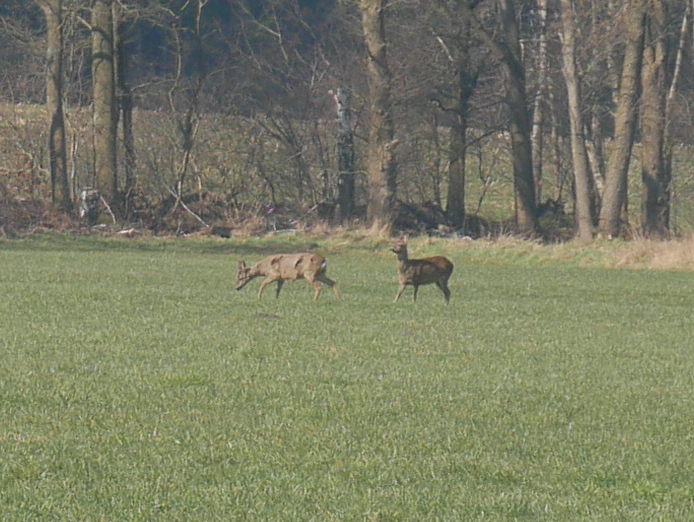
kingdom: Animalia
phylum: Chordata
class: Mammalia
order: Artiodactyla
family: Cervidae
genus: Capreolus
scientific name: Capreolus capreolus
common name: Western roe deer
